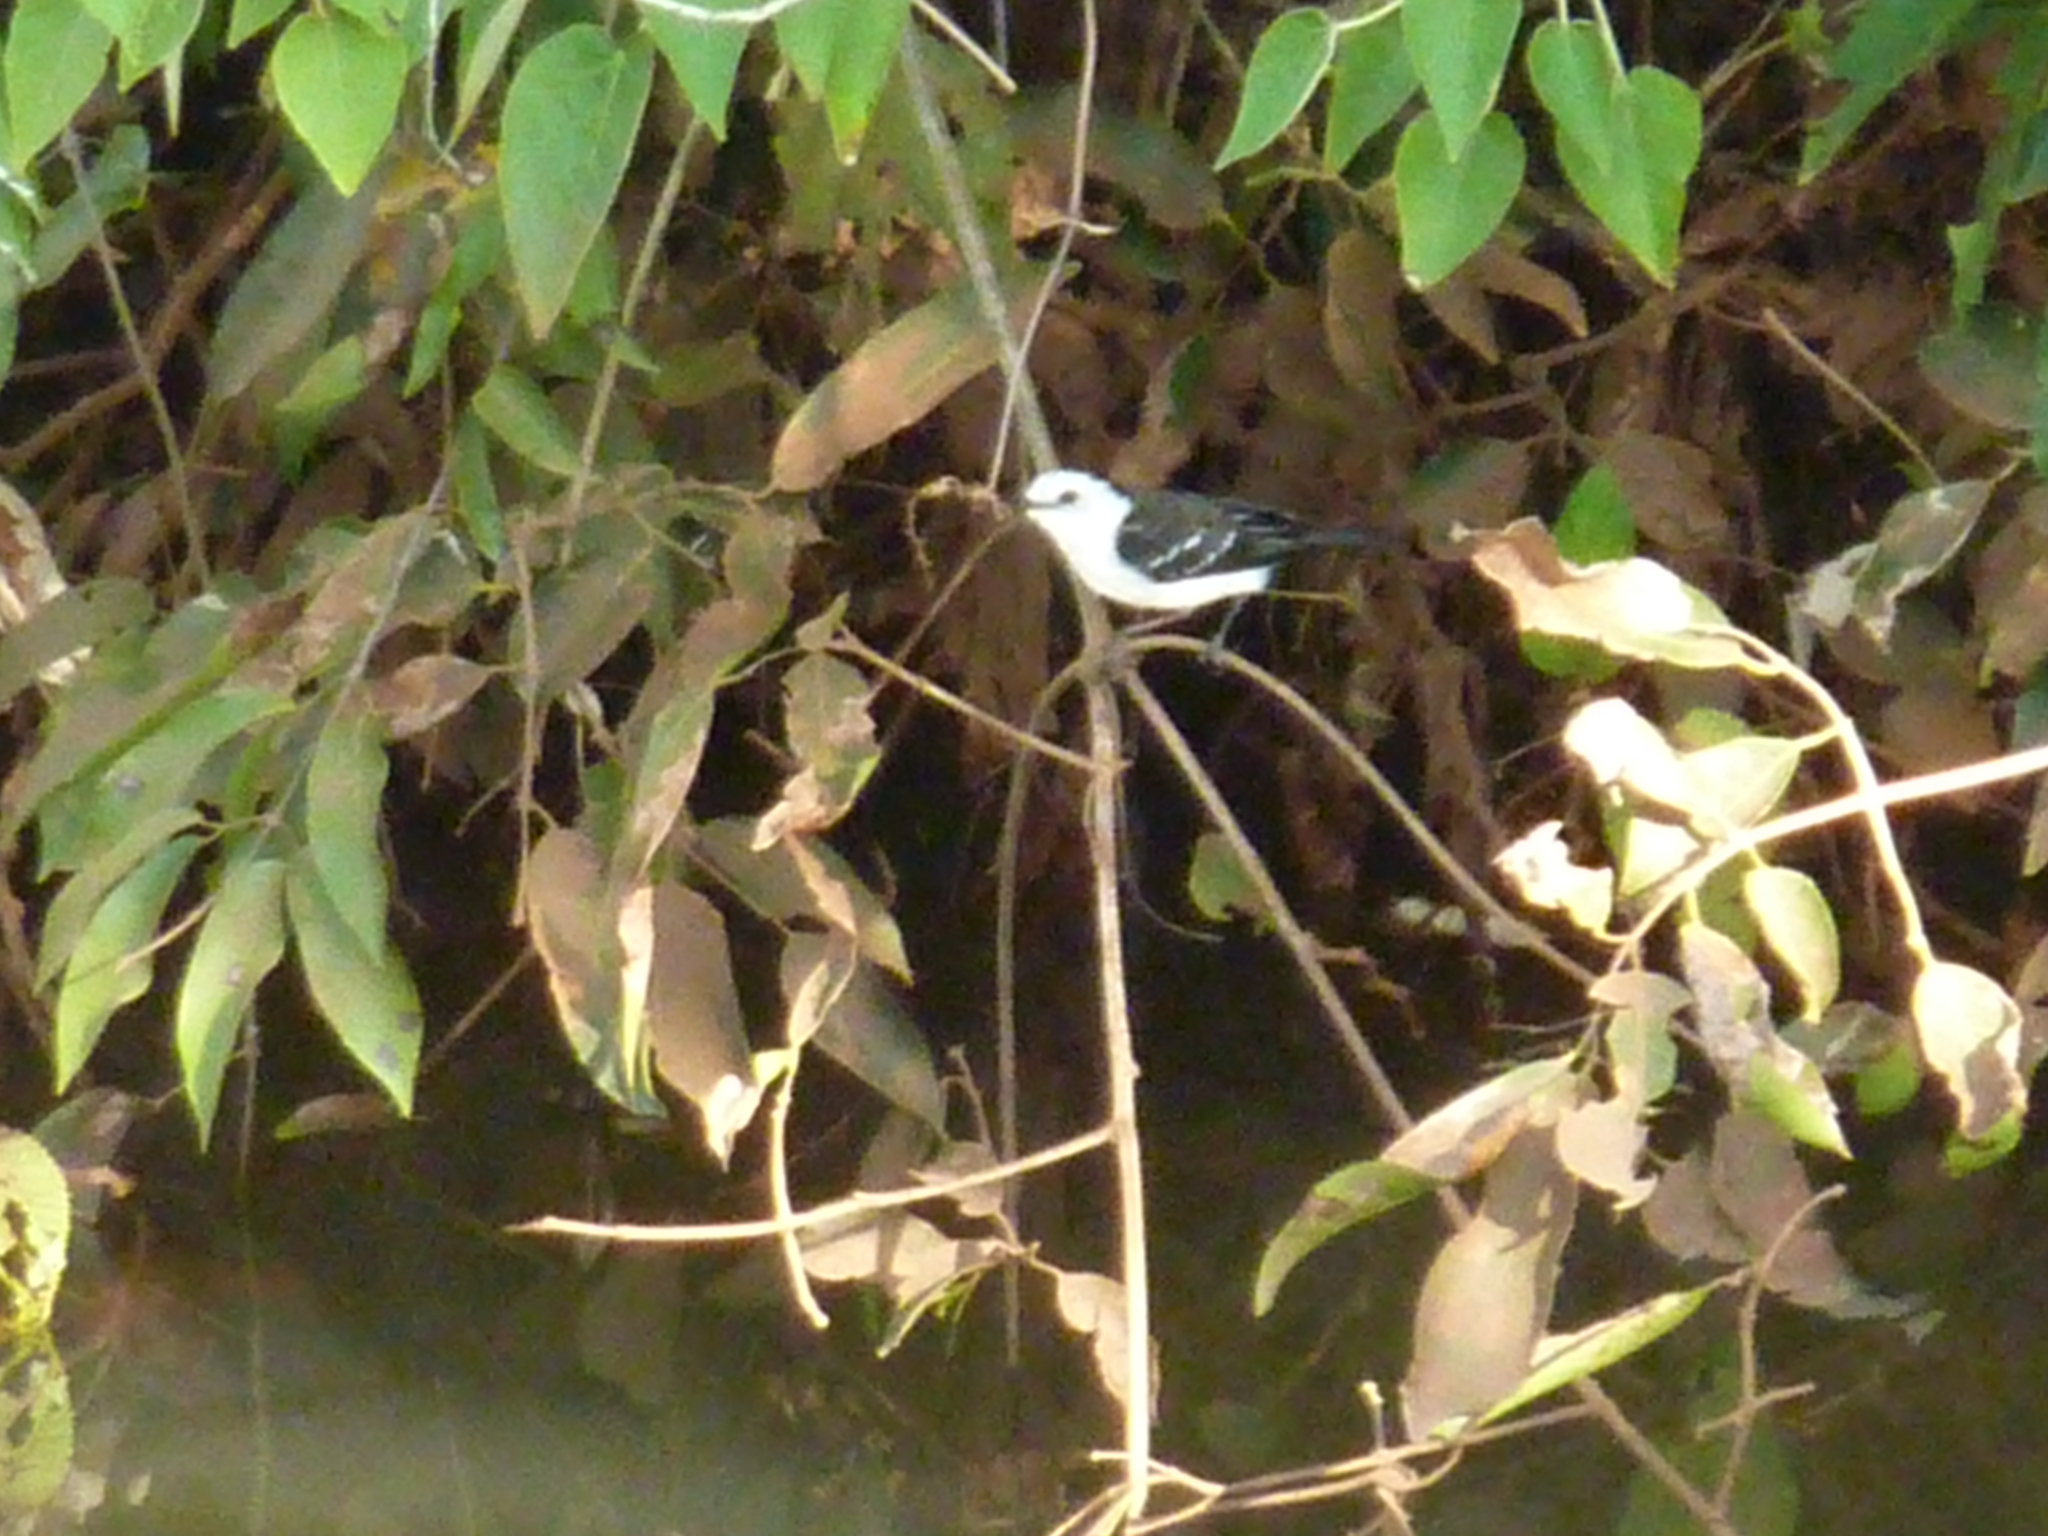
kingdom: Animalia
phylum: Chordata
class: Aves
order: Passeriformes
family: Tyrannidae
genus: Fluvicola
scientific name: Fluvicola pica
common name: Pied water-tyrant
